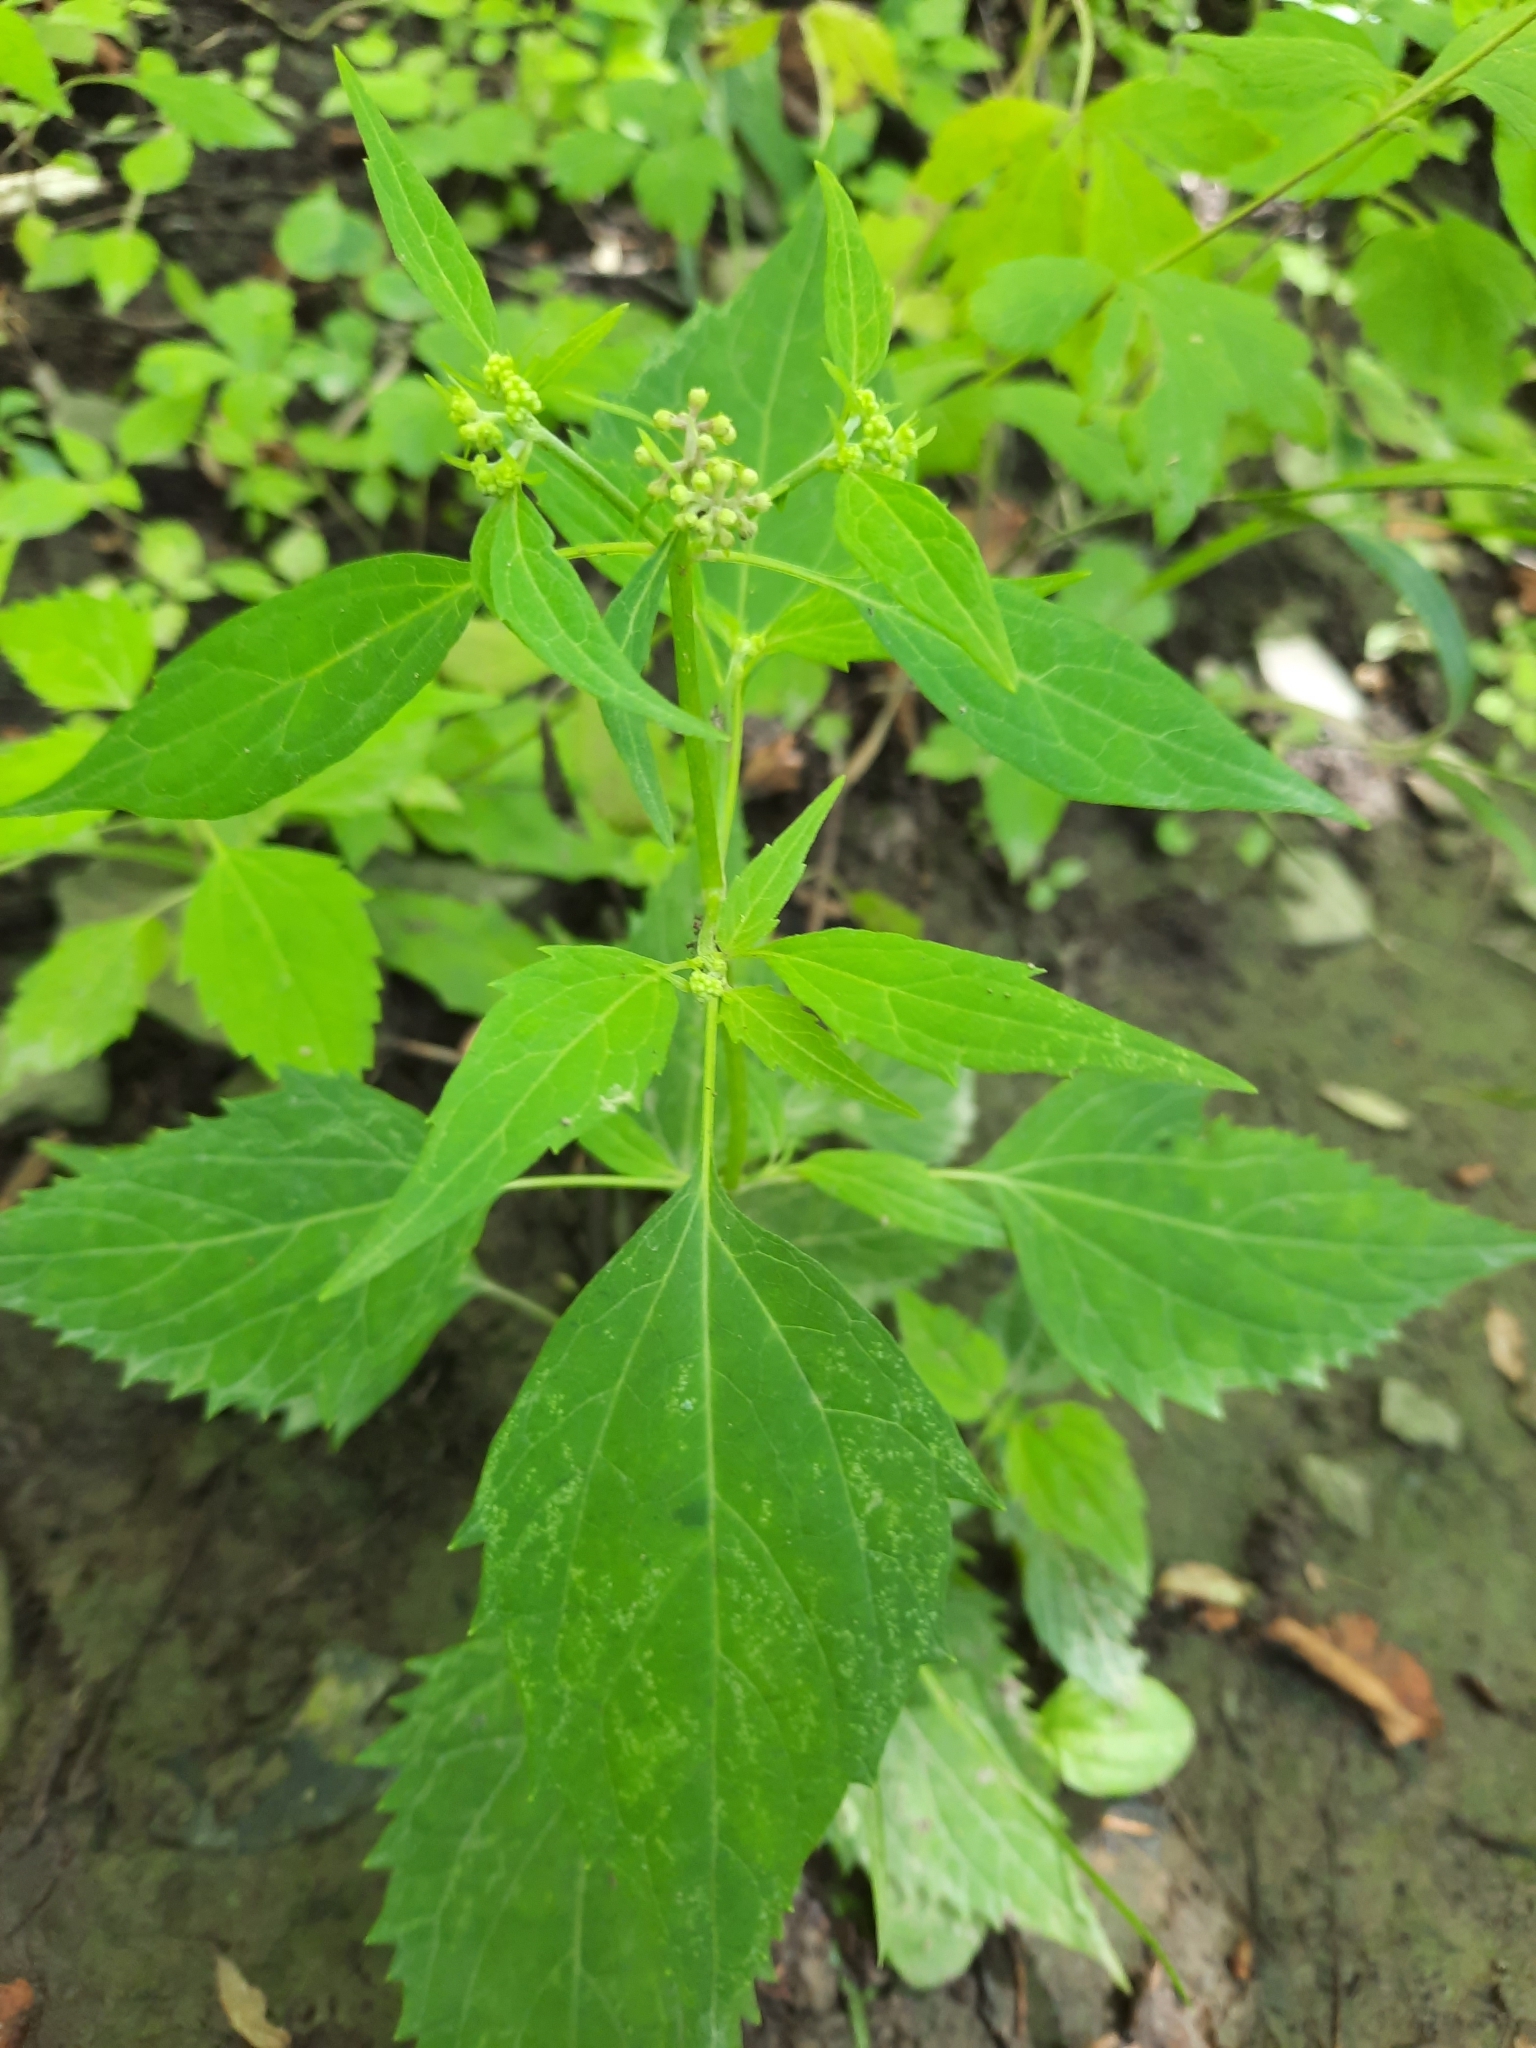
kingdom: Plantae
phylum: Tracheophyta
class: Magnoliopsida
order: Asterales
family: Asteraceae
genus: Ageratina
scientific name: Ageratina altissima
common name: White snakeroot
